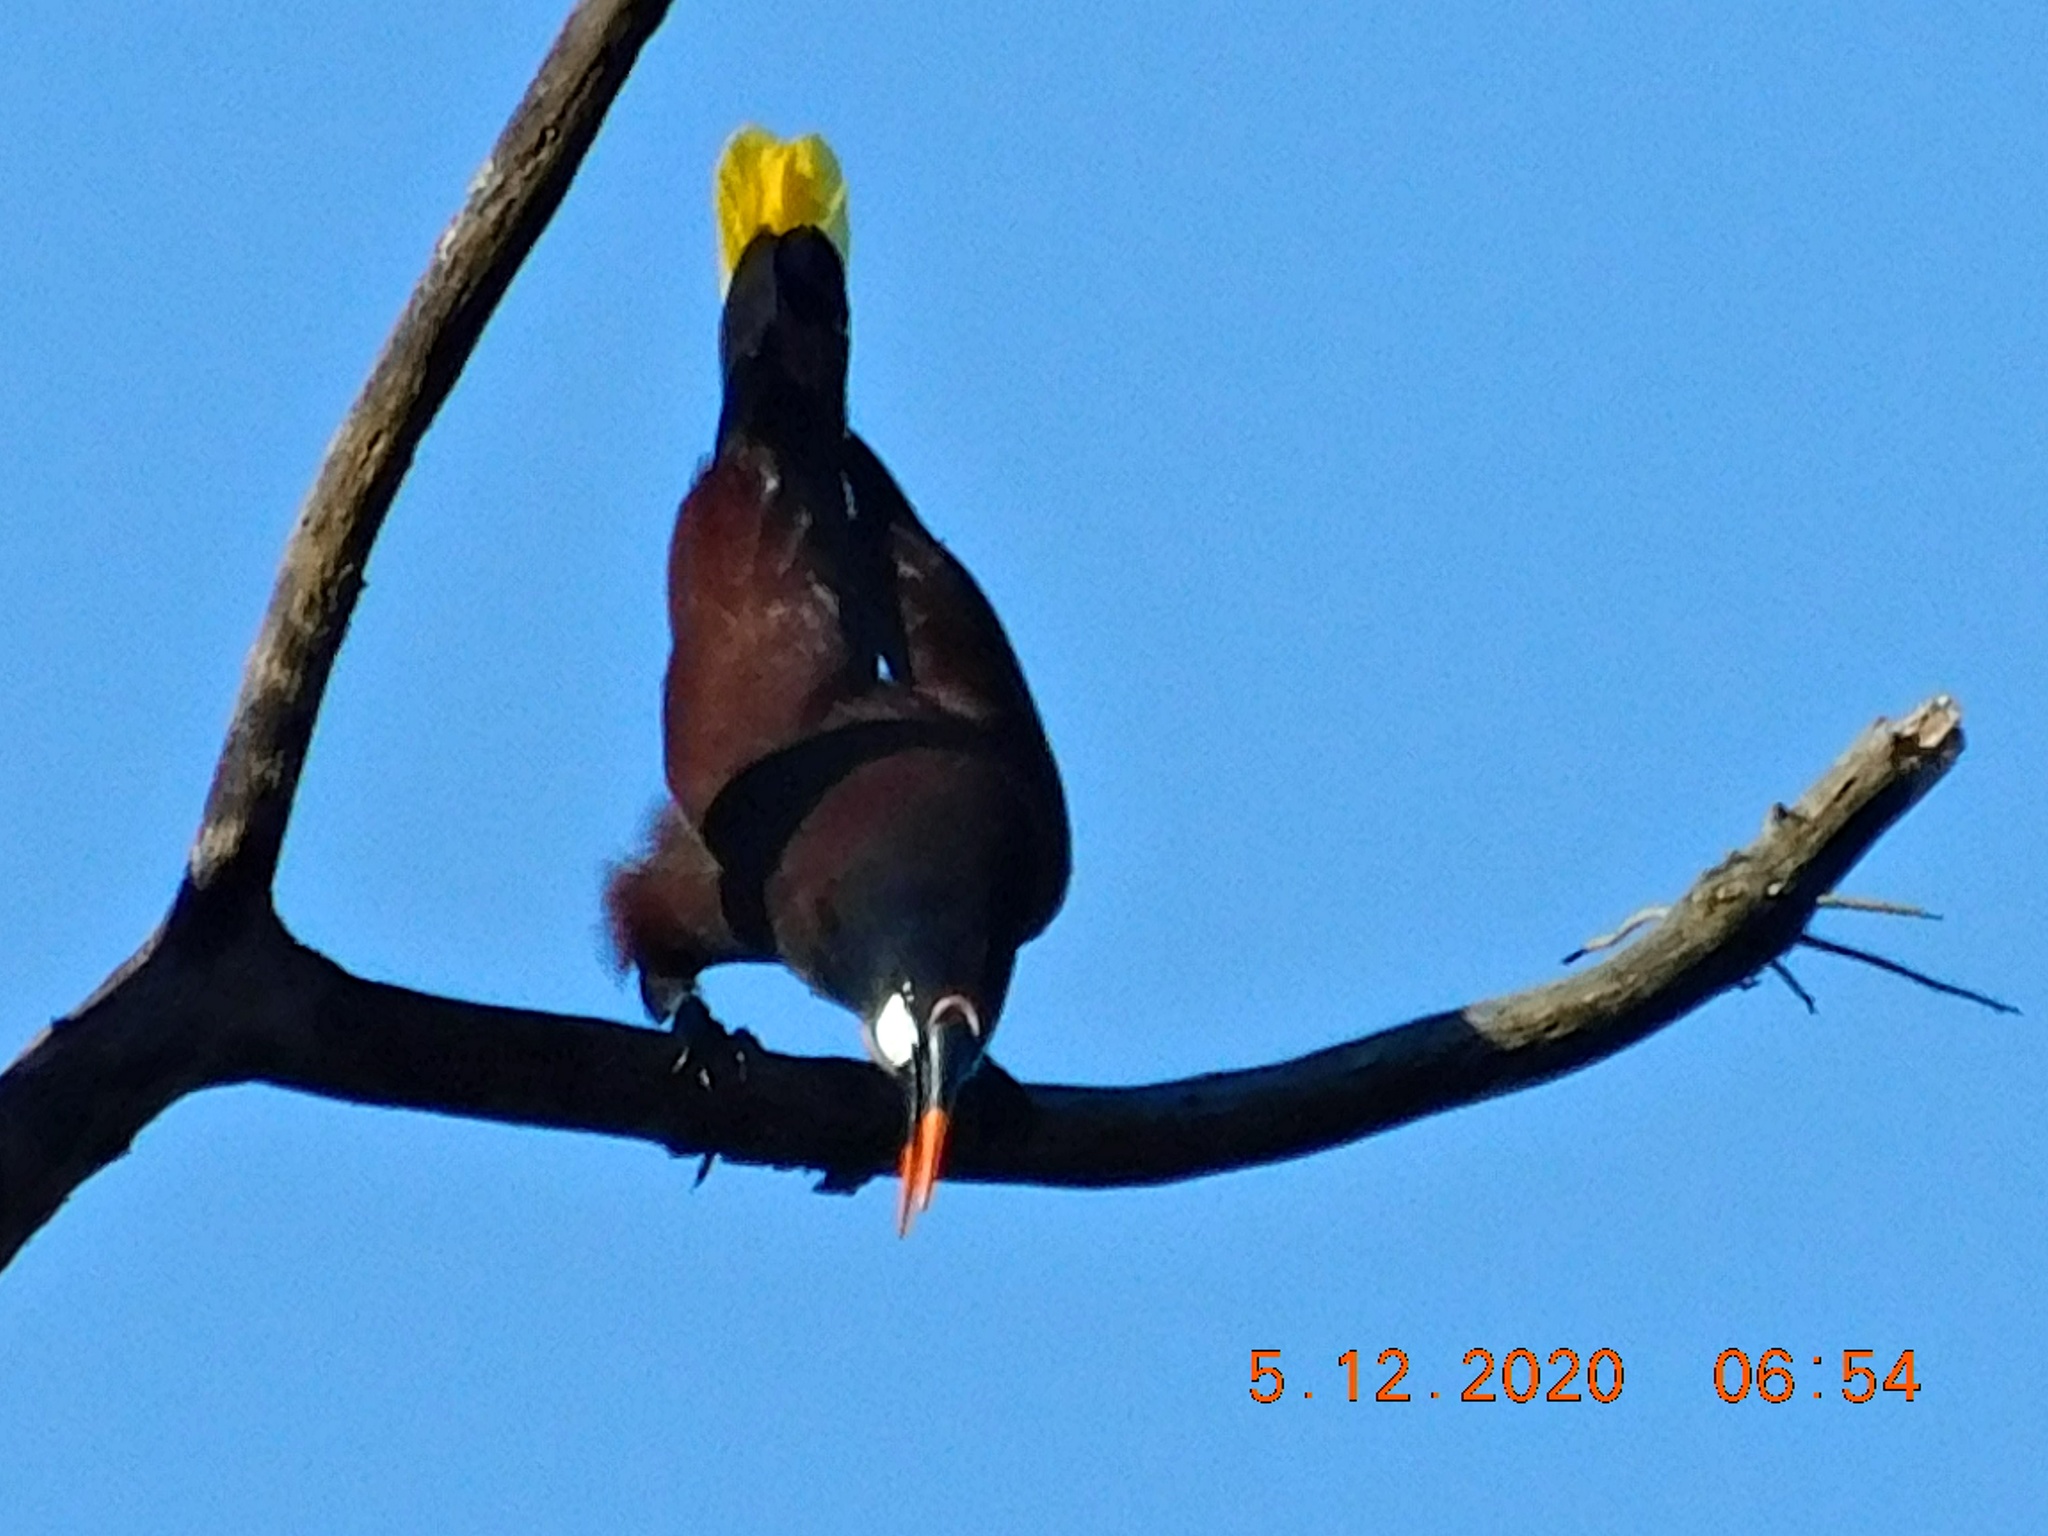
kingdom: Animalia
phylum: Chordata
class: Aves
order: Passeriformes
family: Icteridae
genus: Psarocolius
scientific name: Psarocolius montezuma
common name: Montezuma oropendola
